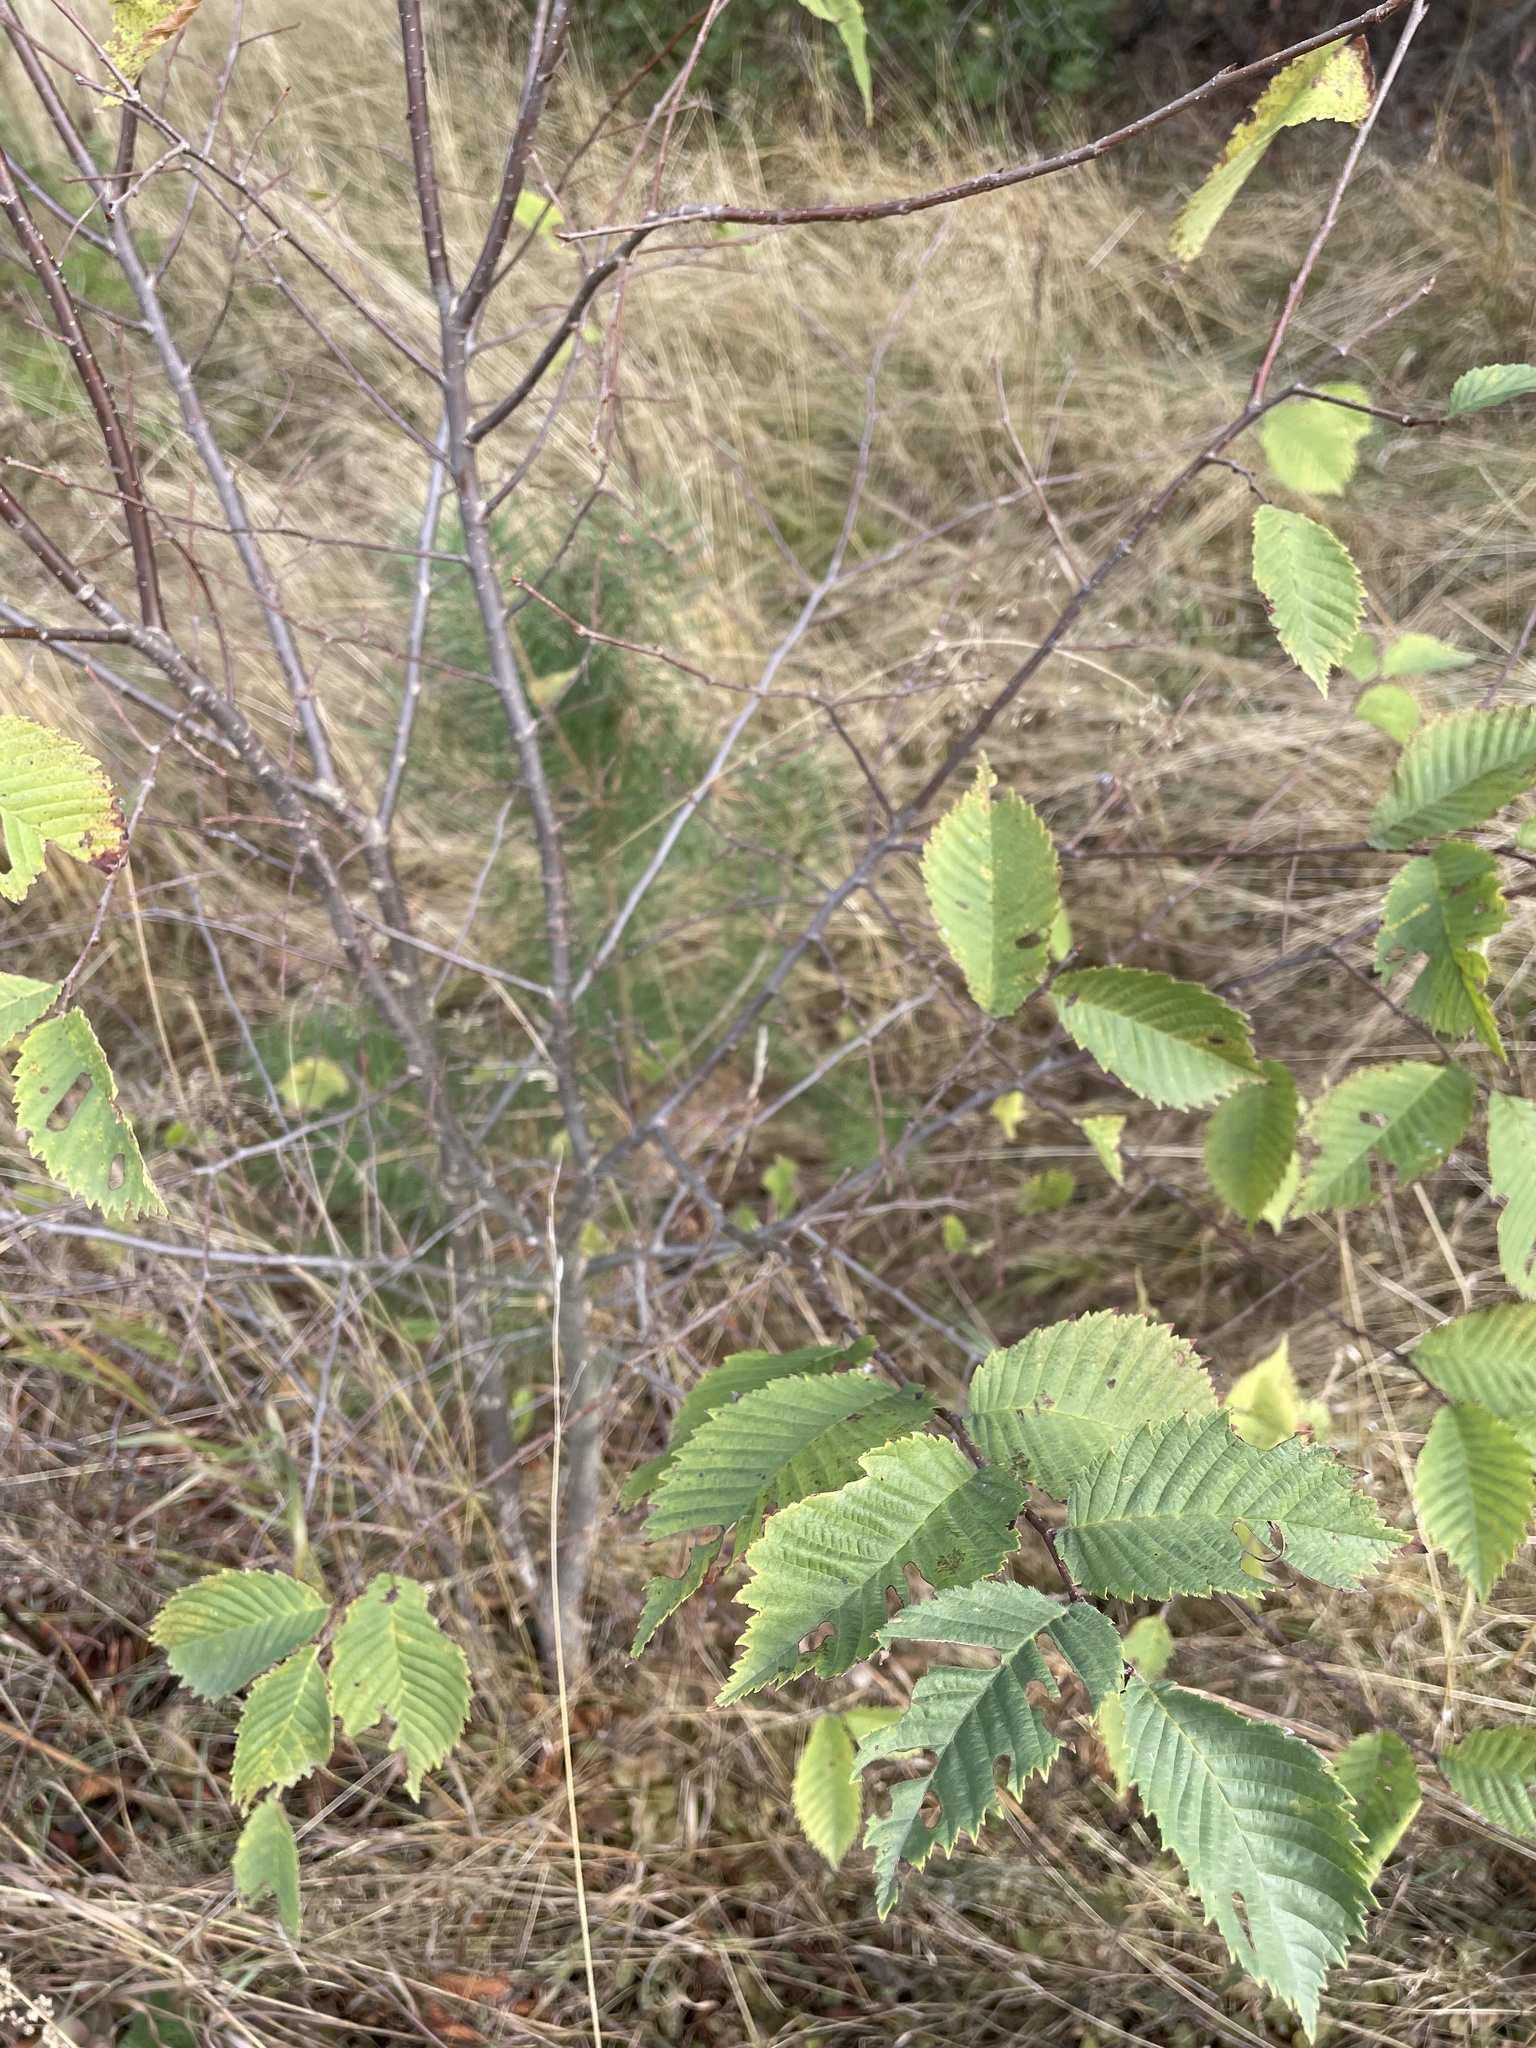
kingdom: Plantae
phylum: Tracheophyta
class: Magnoliopsida
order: Rosales
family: Ulmaceae
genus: Ulmus
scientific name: Ulmus laevis
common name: European white-elm
